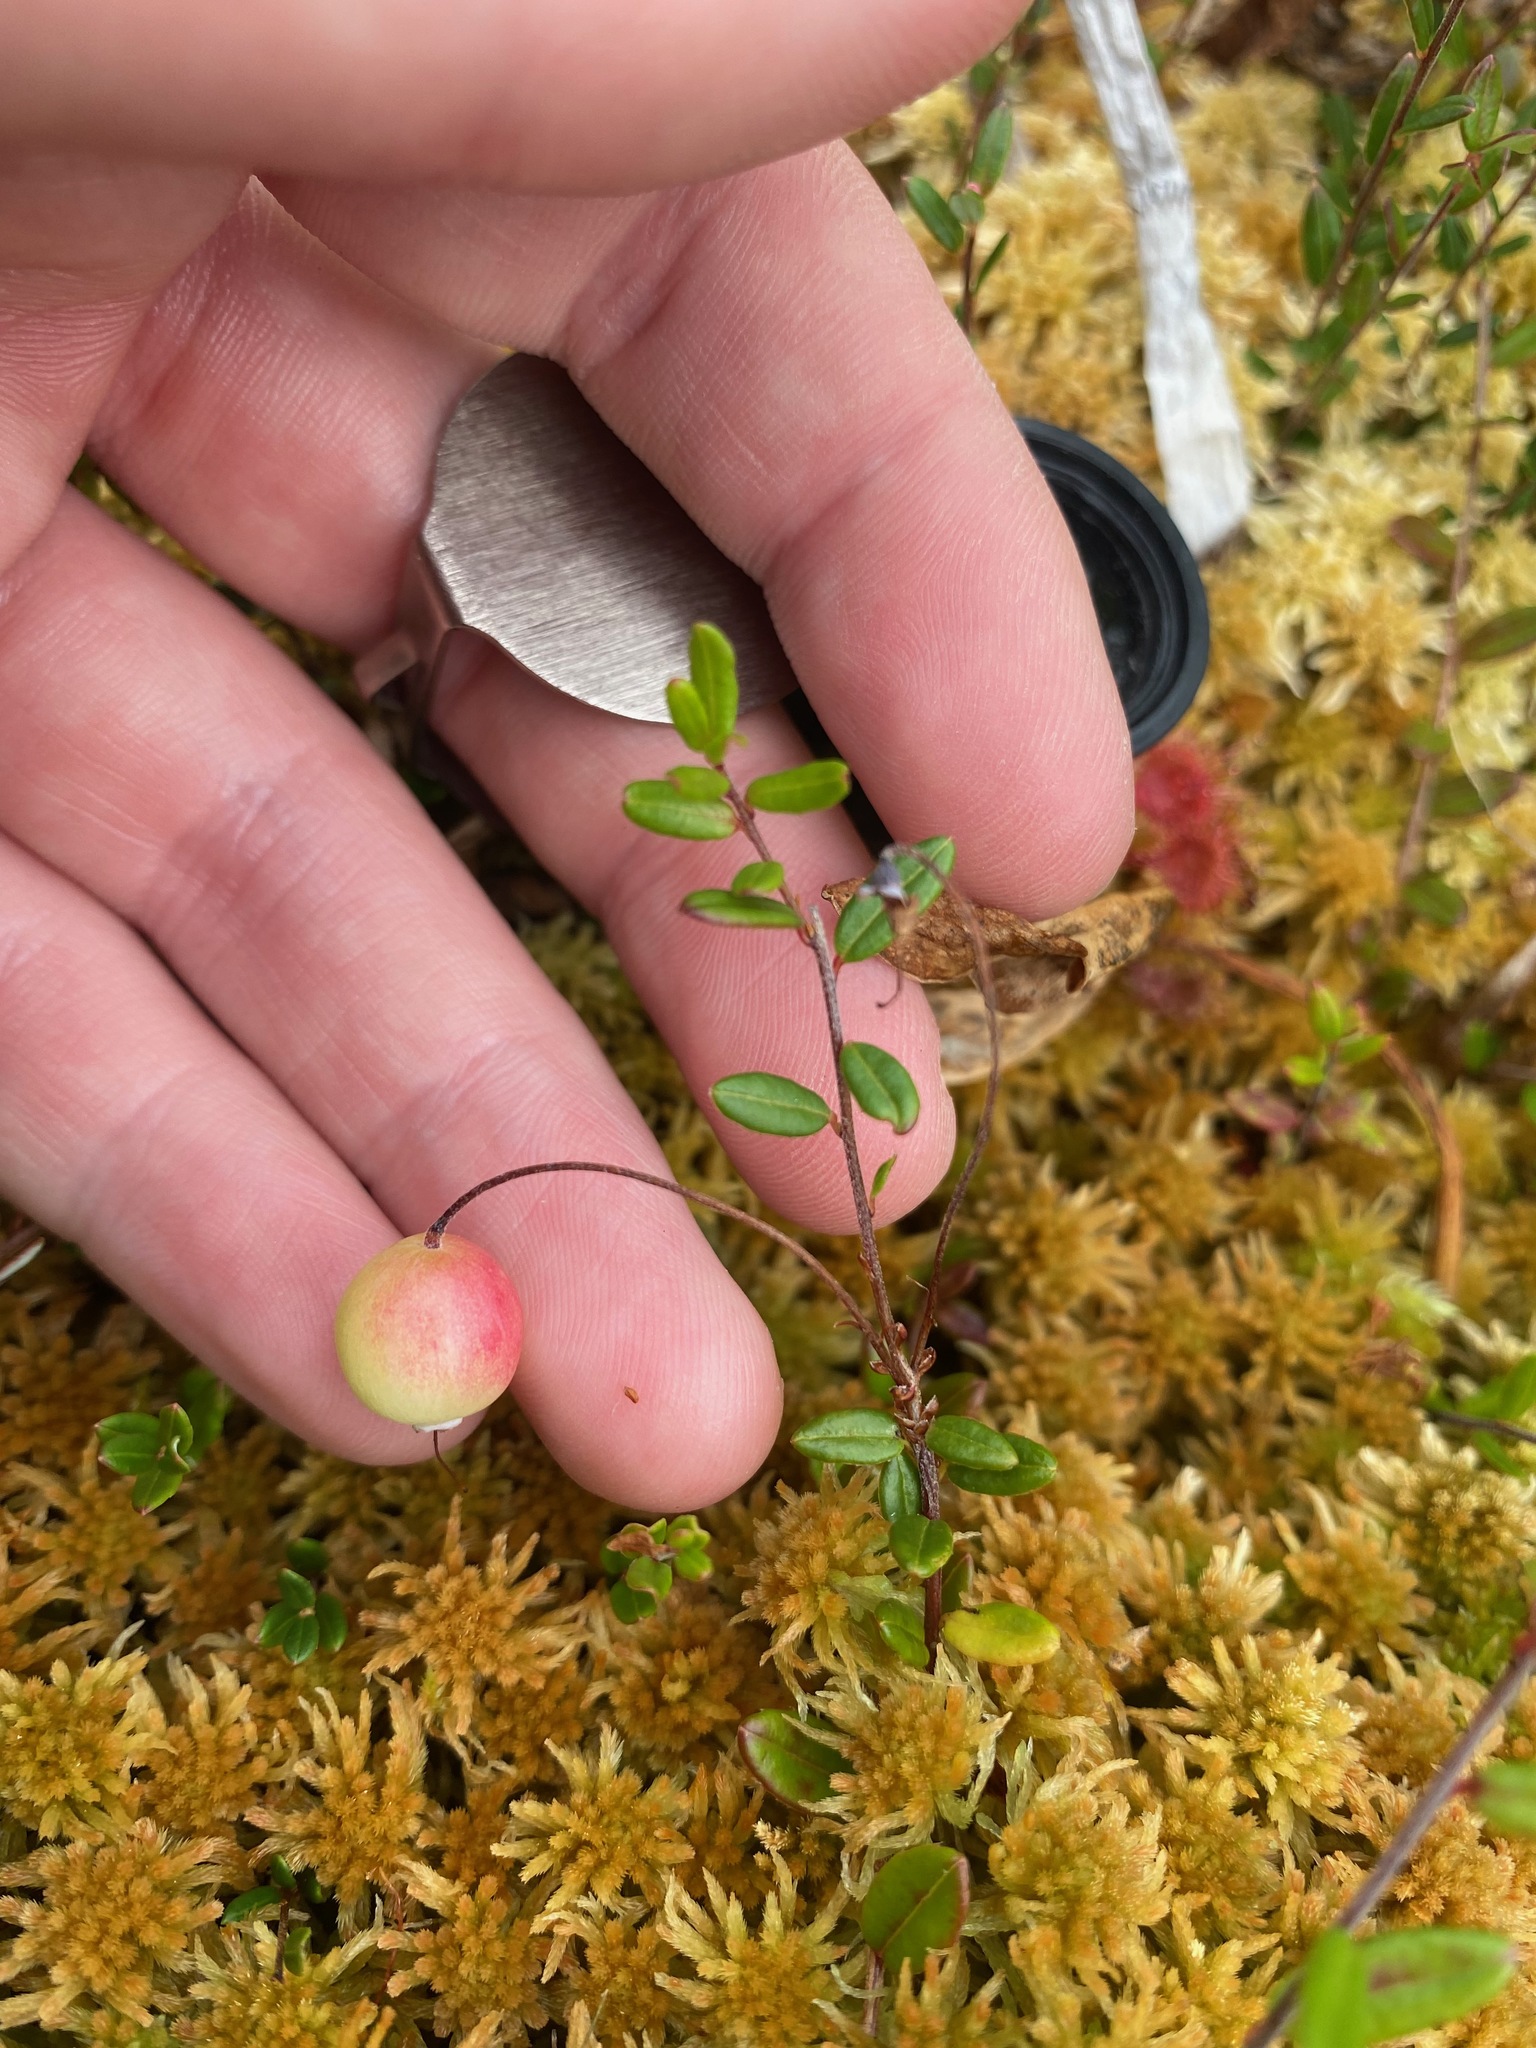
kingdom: Plantae
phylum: Tracheophyta
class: Magnoliopsida
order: Ericales
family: Ericaceae
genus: Vaccinium
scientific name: Vaccinium oxycoccos
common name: Cranberry
